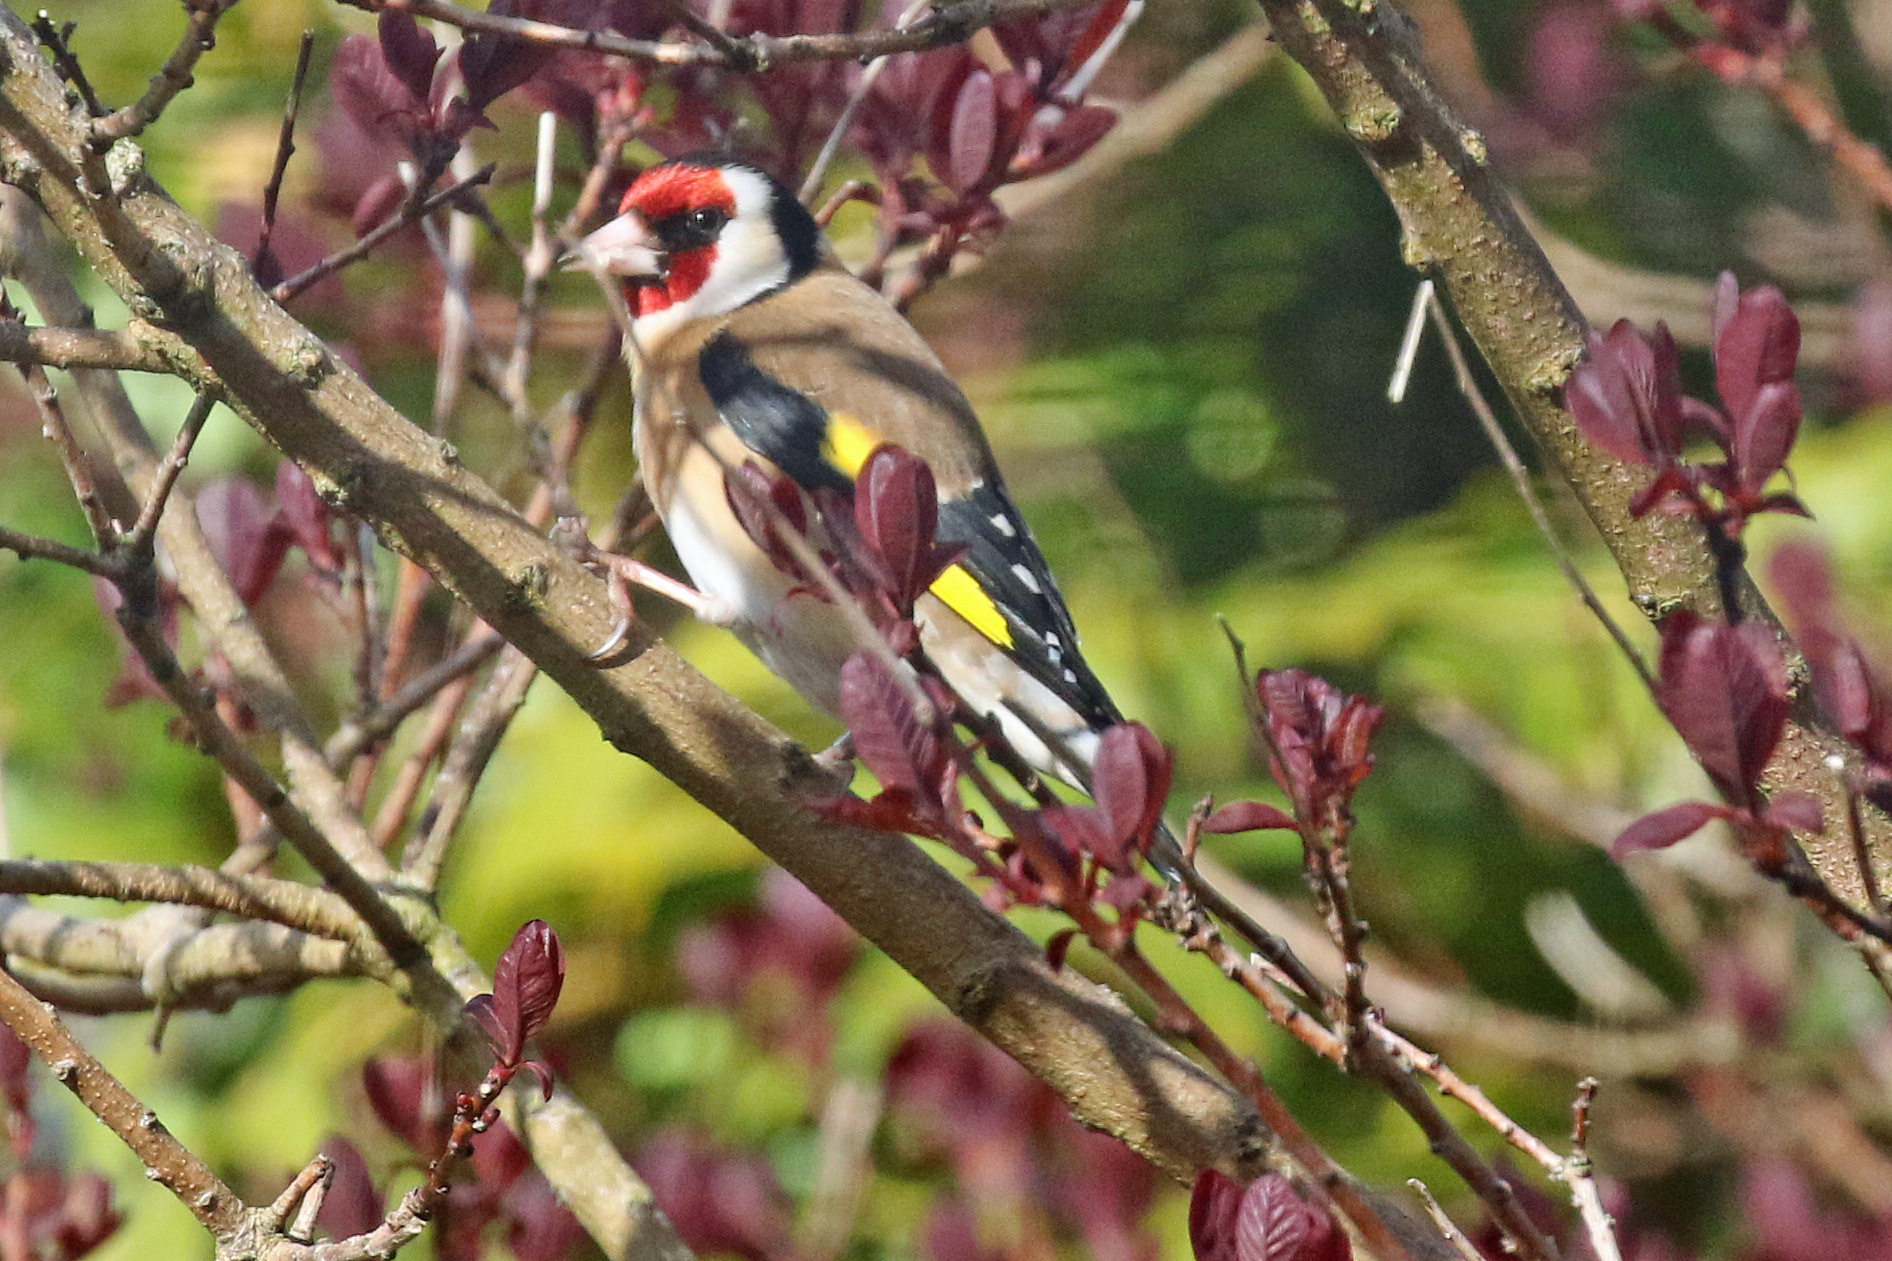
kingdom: Animalia
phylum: Chordata
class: Aves
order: Passeriformes
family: Fringillidae
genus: Carduelis
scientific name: Carduelis carduelis
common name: European goldfinch
